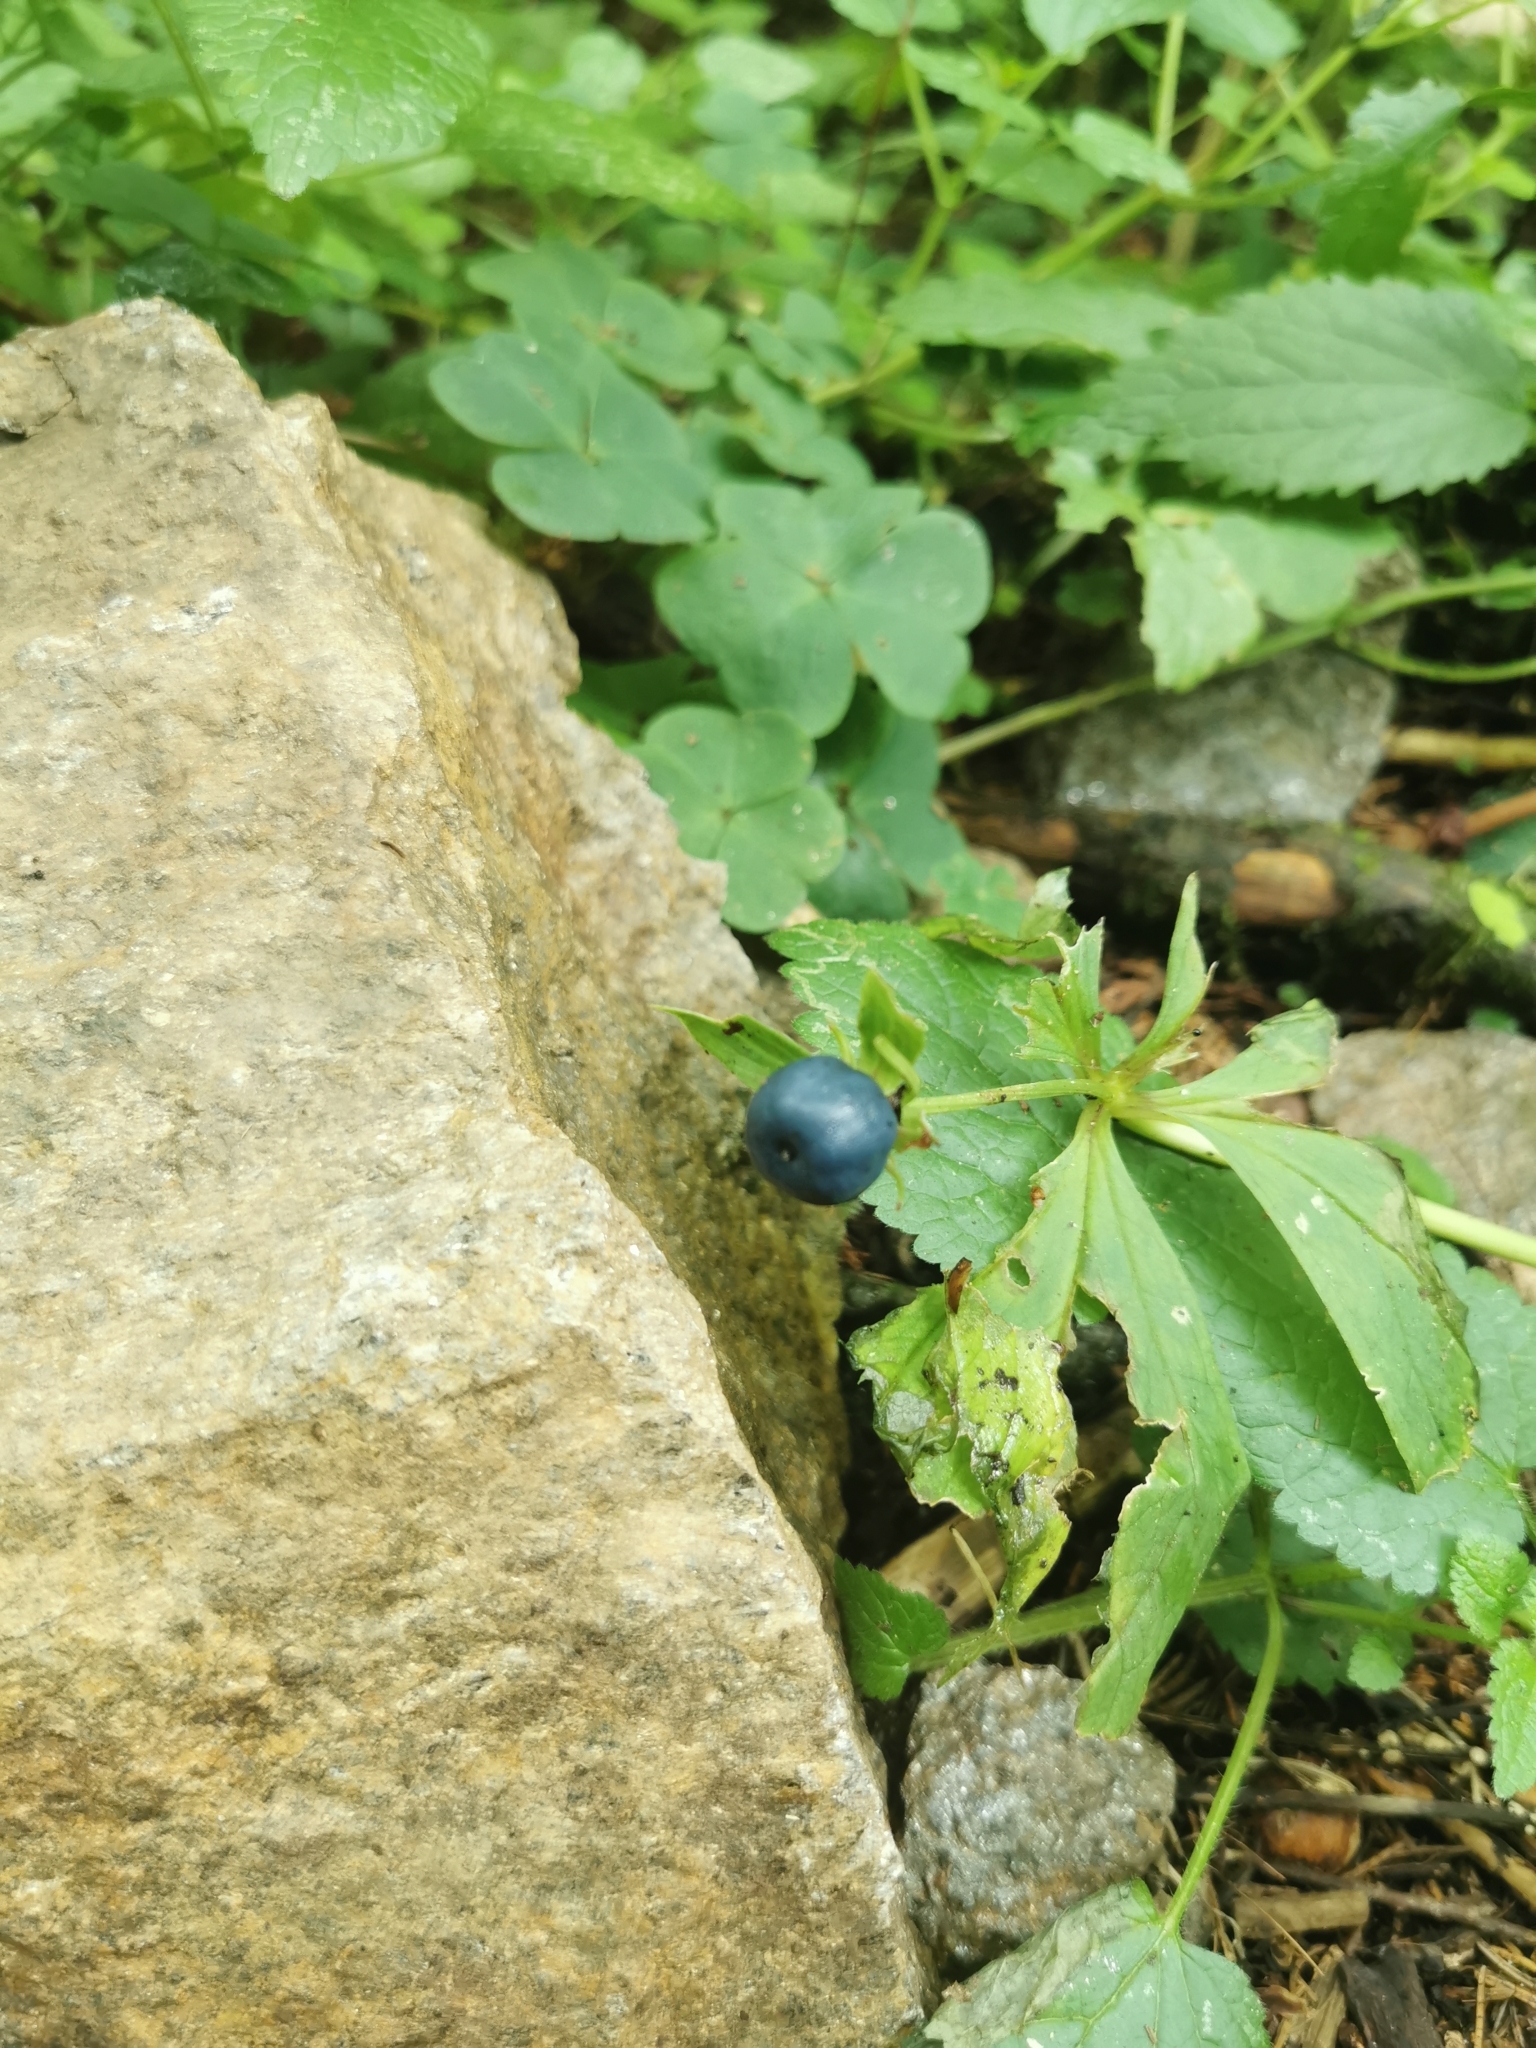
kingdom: Plantae
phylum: Tracheophyta
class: Liliopsida
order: Liliales
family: Melanthiaceae
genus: Paris
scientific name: Paris quadrifolia
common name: Herb-paris
